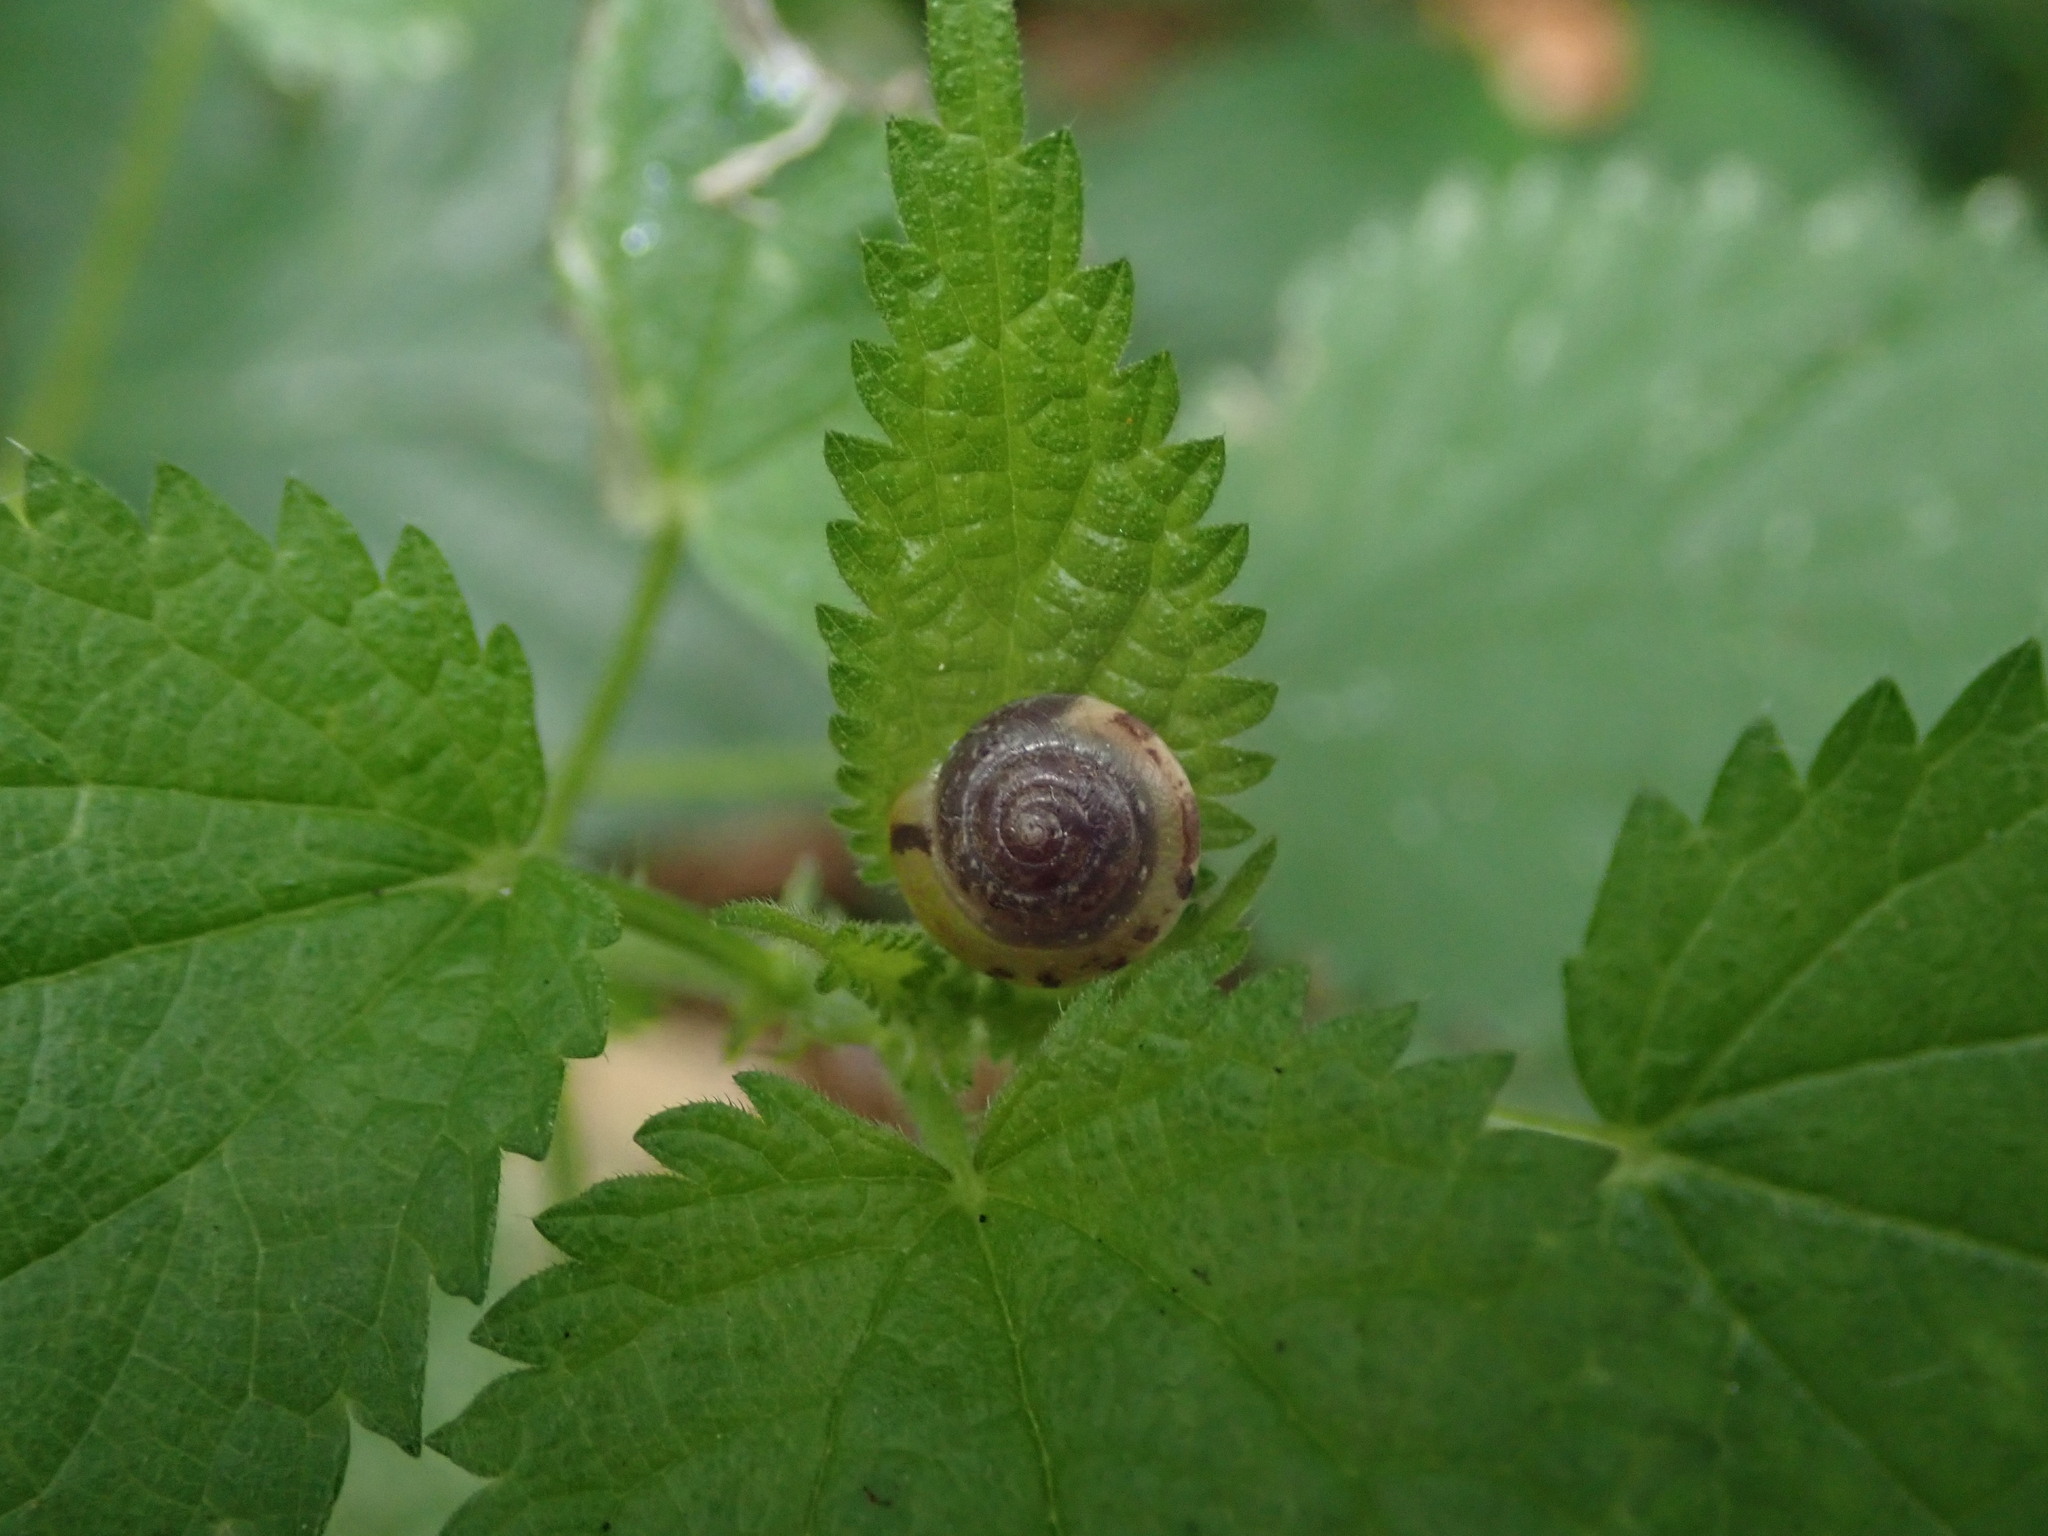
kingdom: Animalia
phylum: Mollusca
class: Gastropoda
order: Stylommatophora
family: Hygromiidae
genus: Hygromia
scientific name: Hygromia cinctella
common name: Girdled snail
